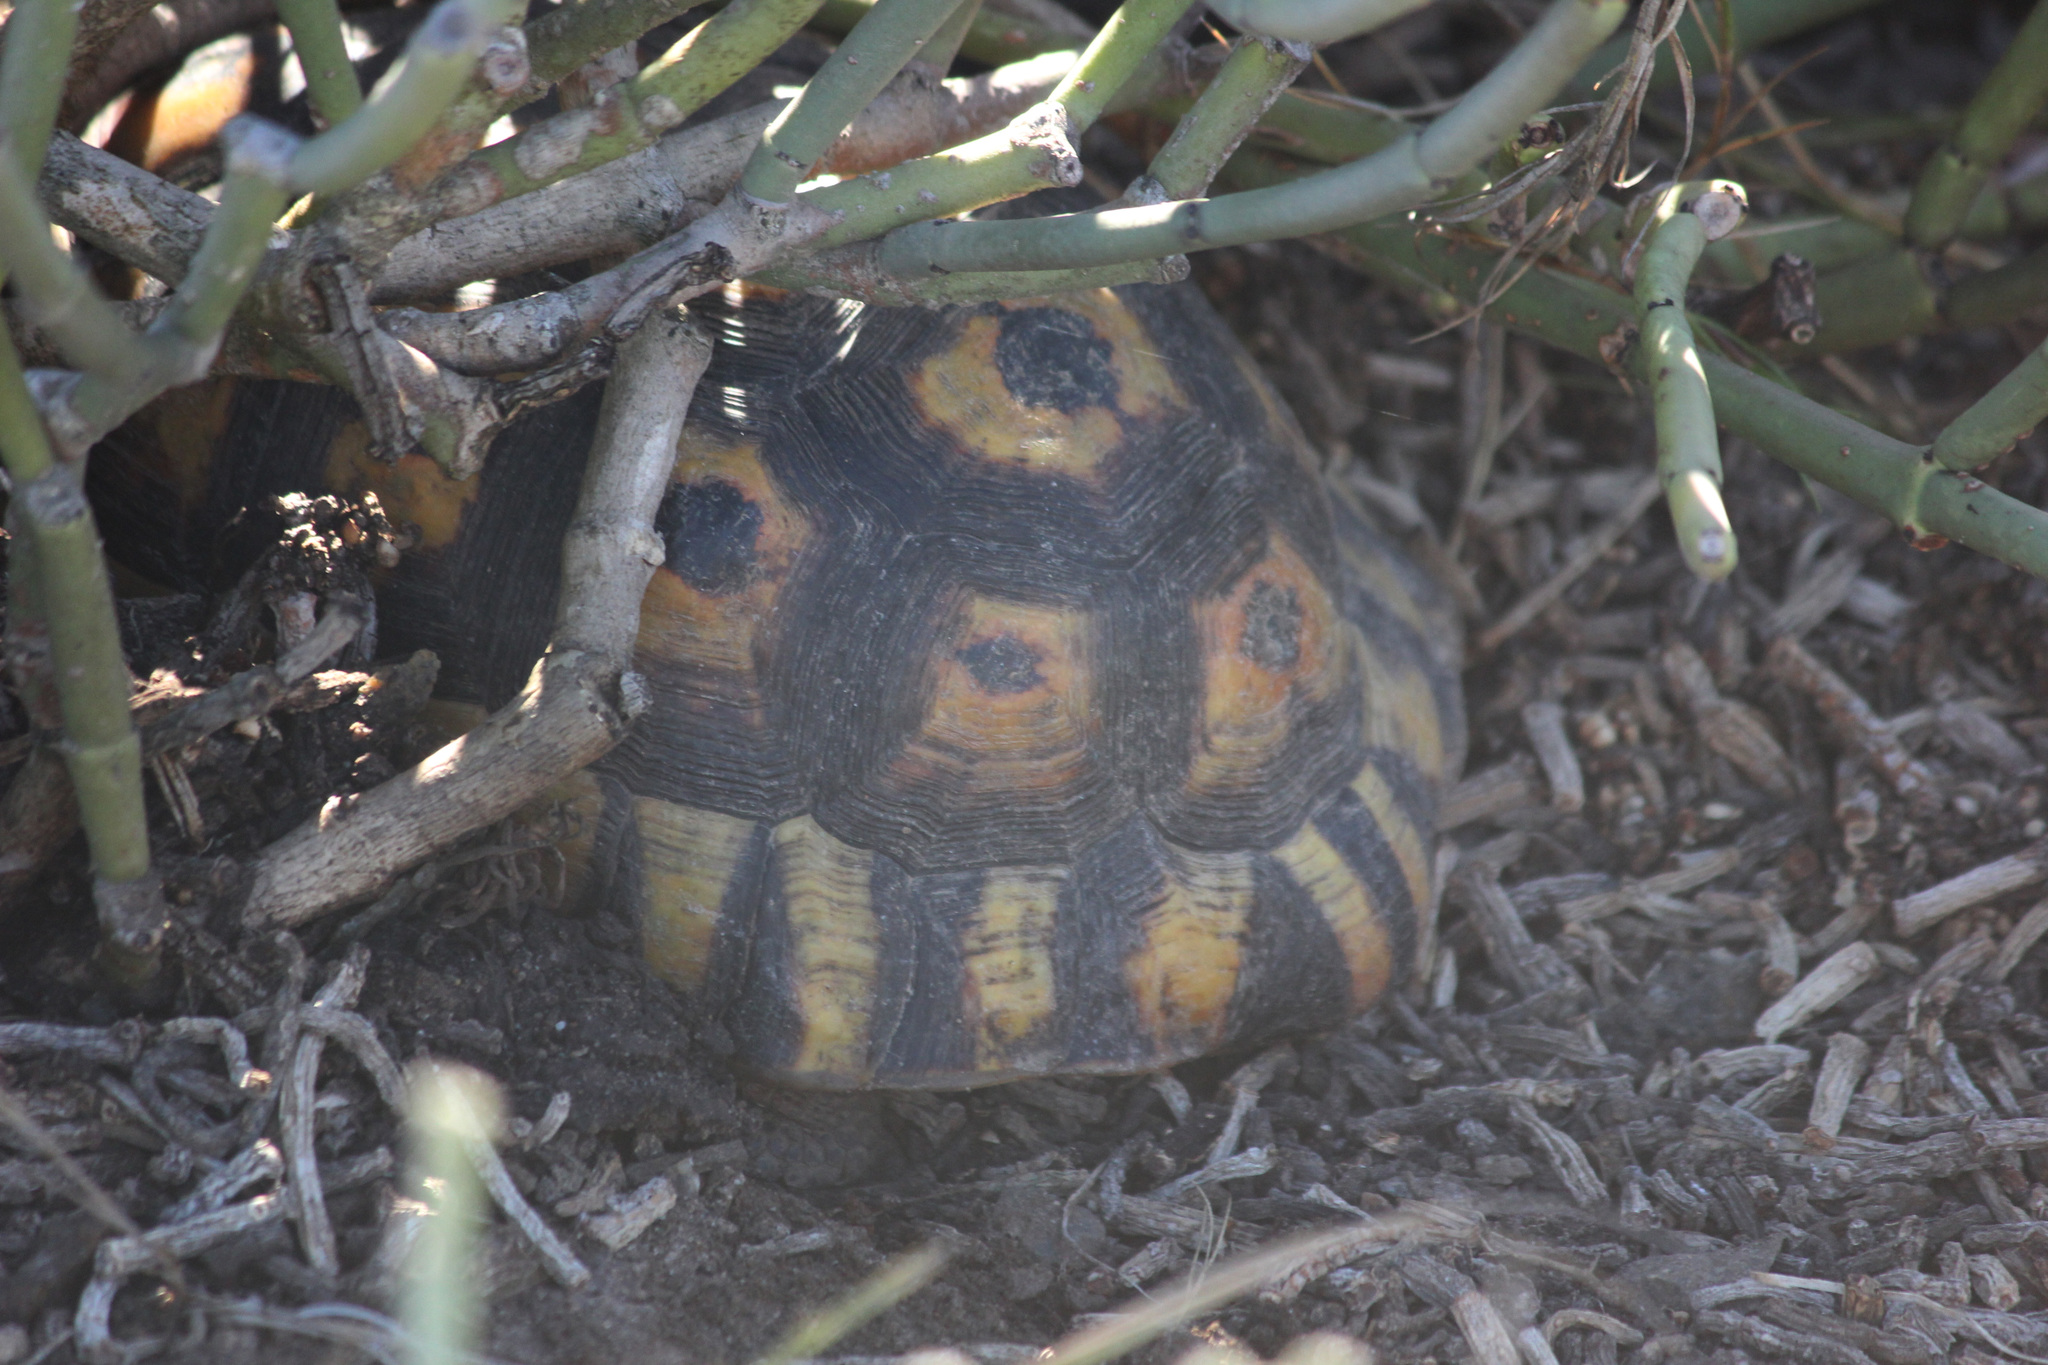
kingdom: Animalia
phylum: Chordata
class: Testudines
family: Testudinidae
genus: Chersina
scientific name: Chersina angulata
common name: South african bowsprit tortoise
